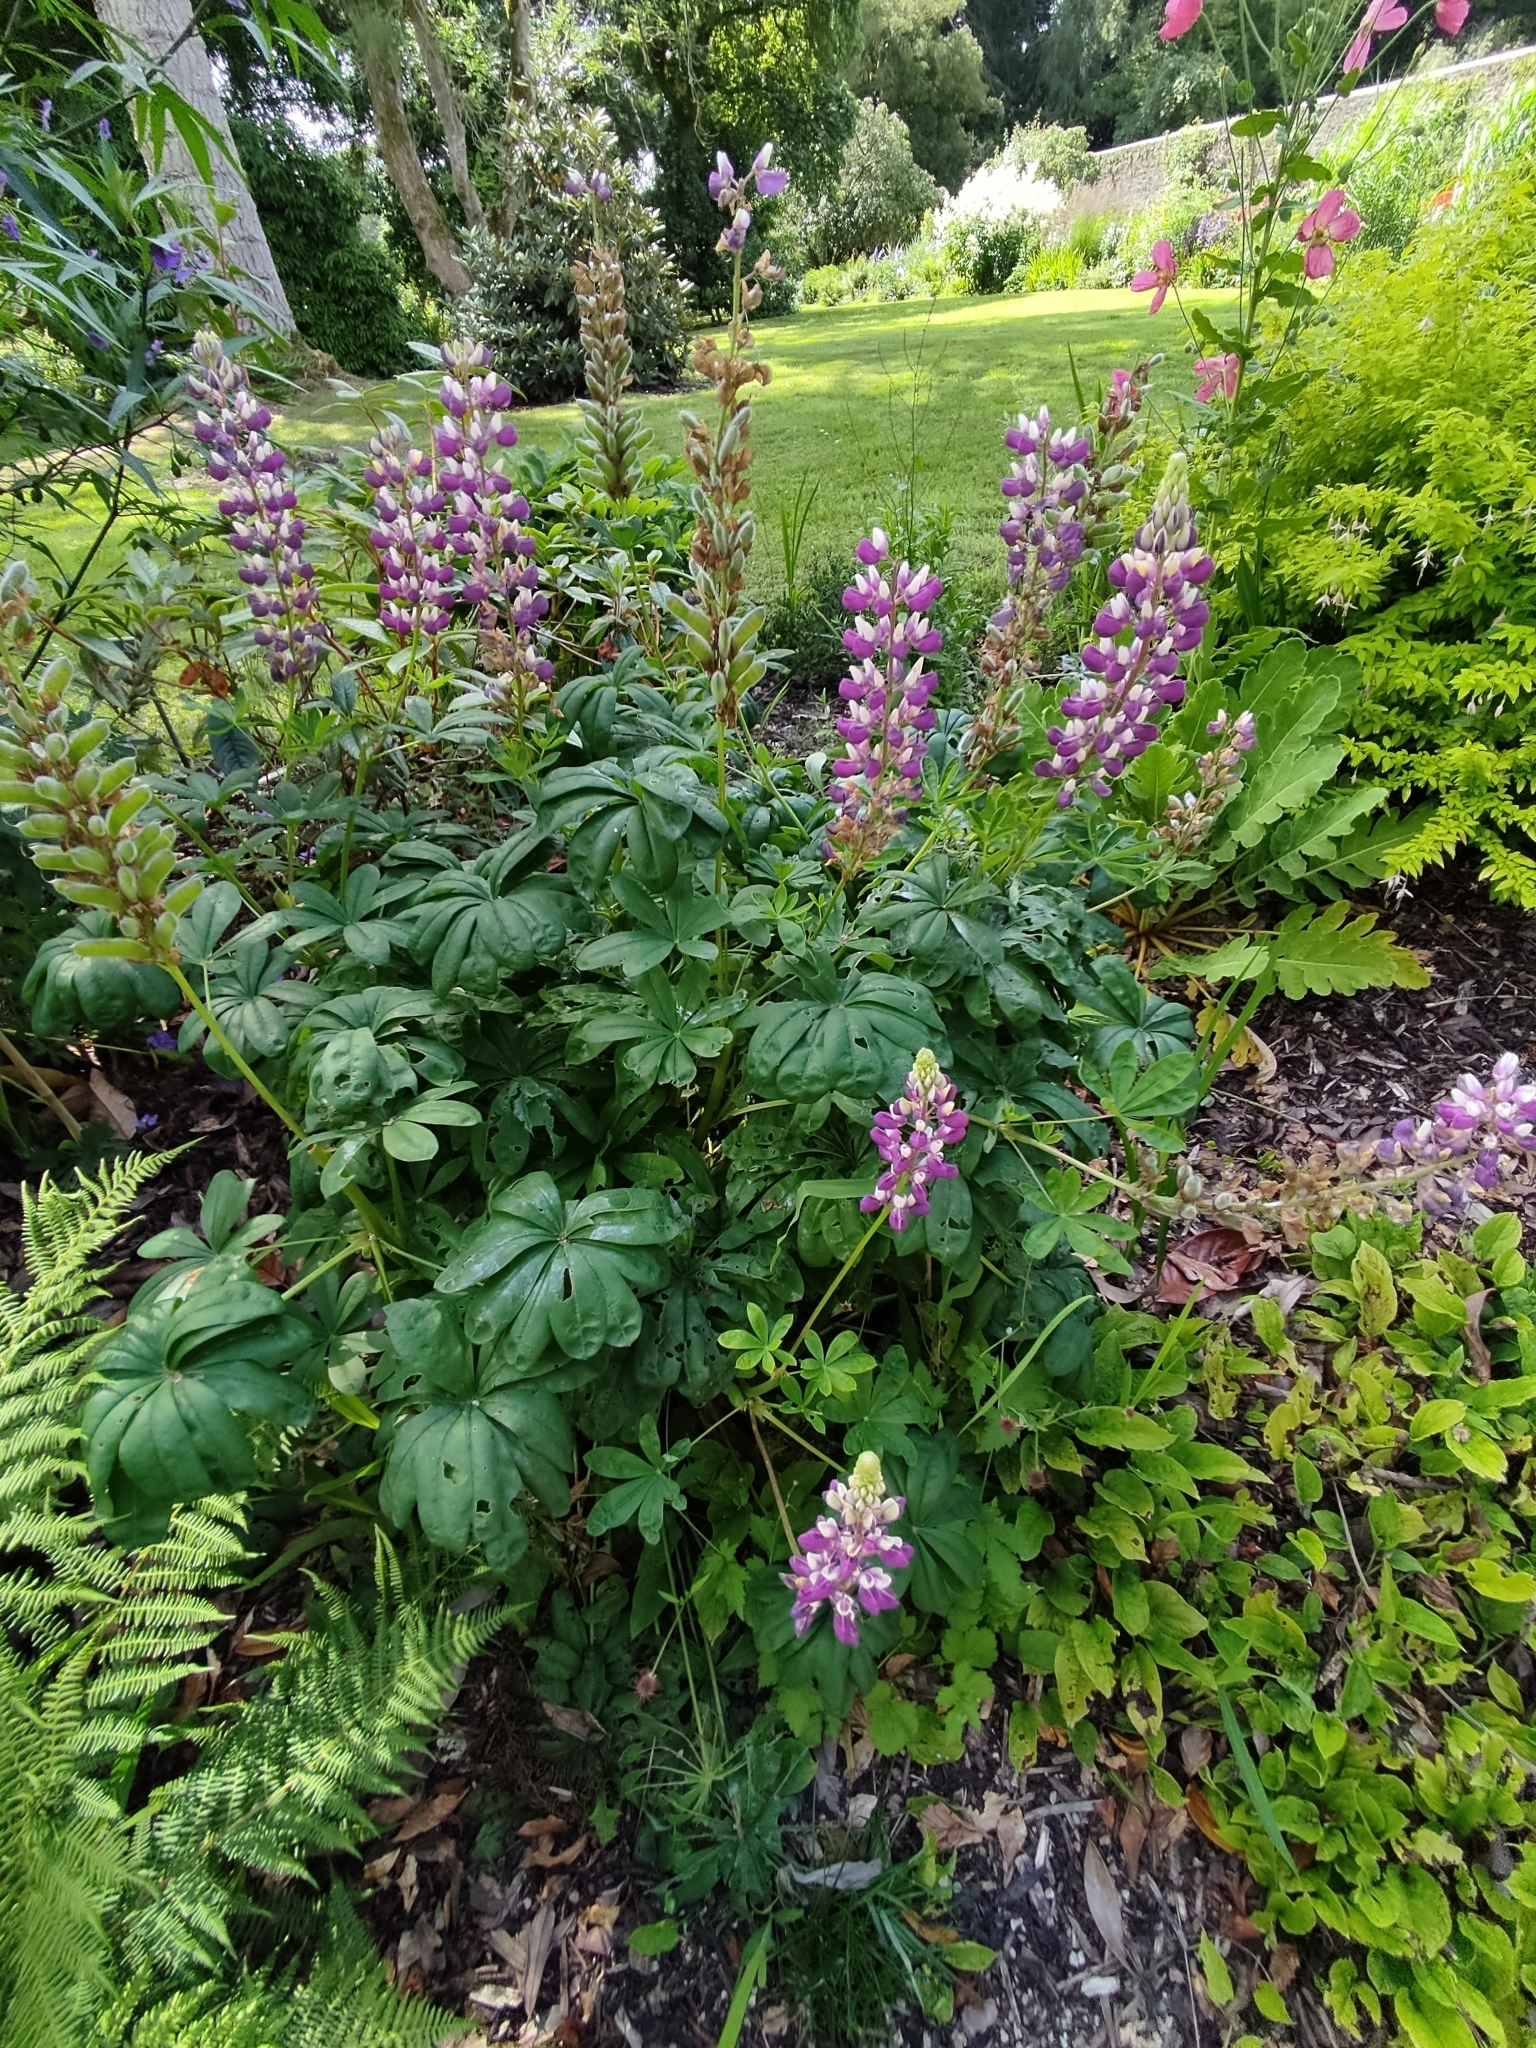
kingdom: Plantae
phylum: Tracheophyta
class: Magnoliopsida
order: Fabales
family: Fabaceae
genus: Lupinus
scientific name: Lupinus polyphyllus
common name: Garden lupin
